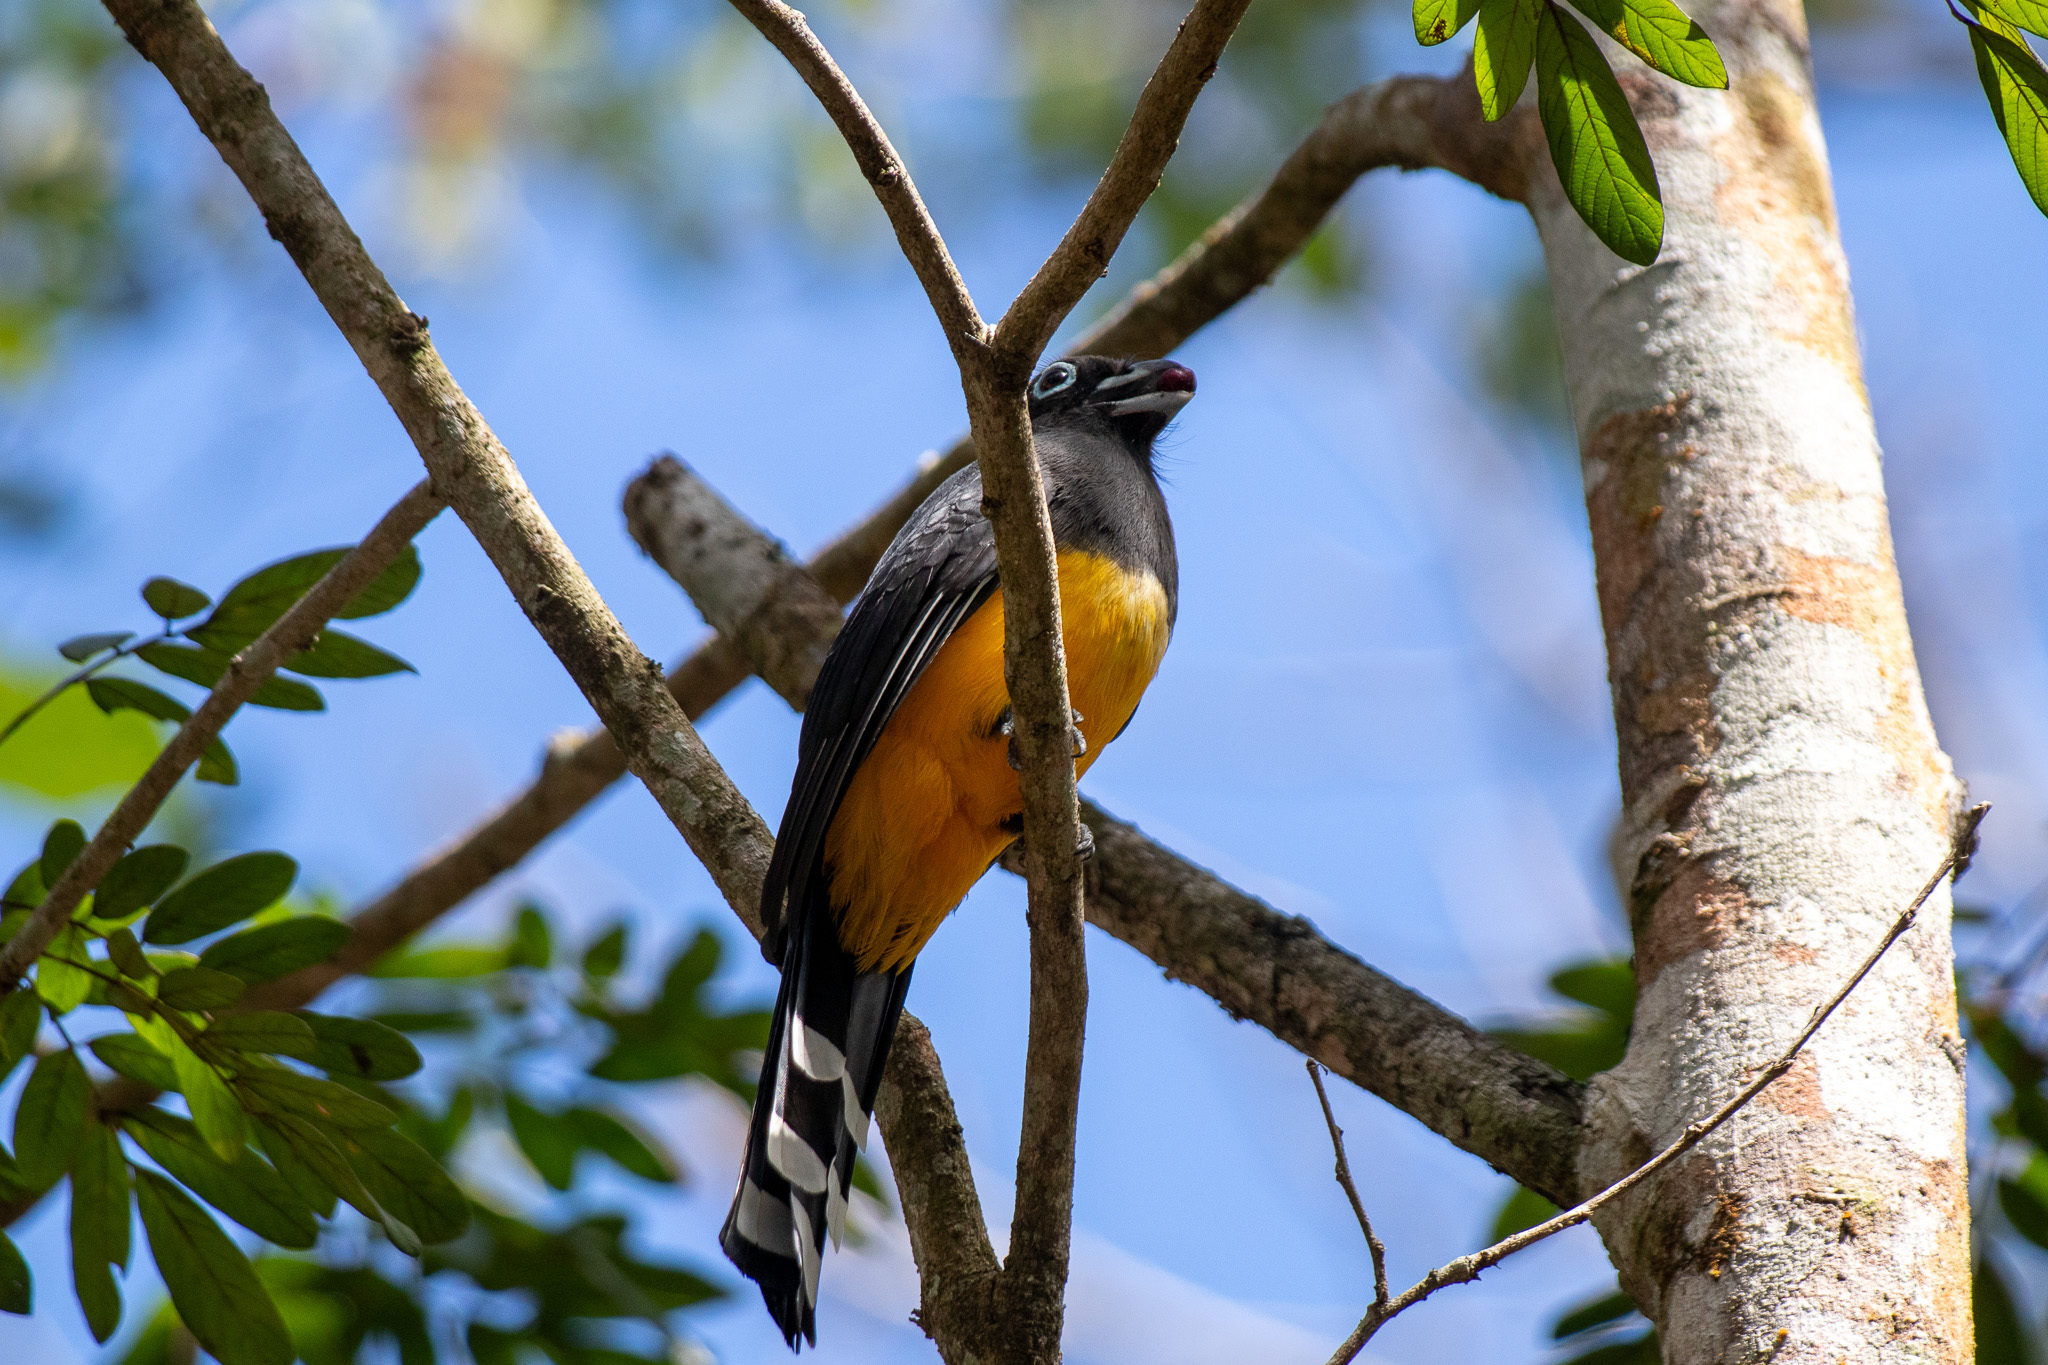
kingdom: Animalia
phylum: Chordata
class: Aves
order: Trogoniformes
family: Trogonidae
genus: Trogon
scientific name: Trogon melanocephalus
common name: Black-headed trogon
